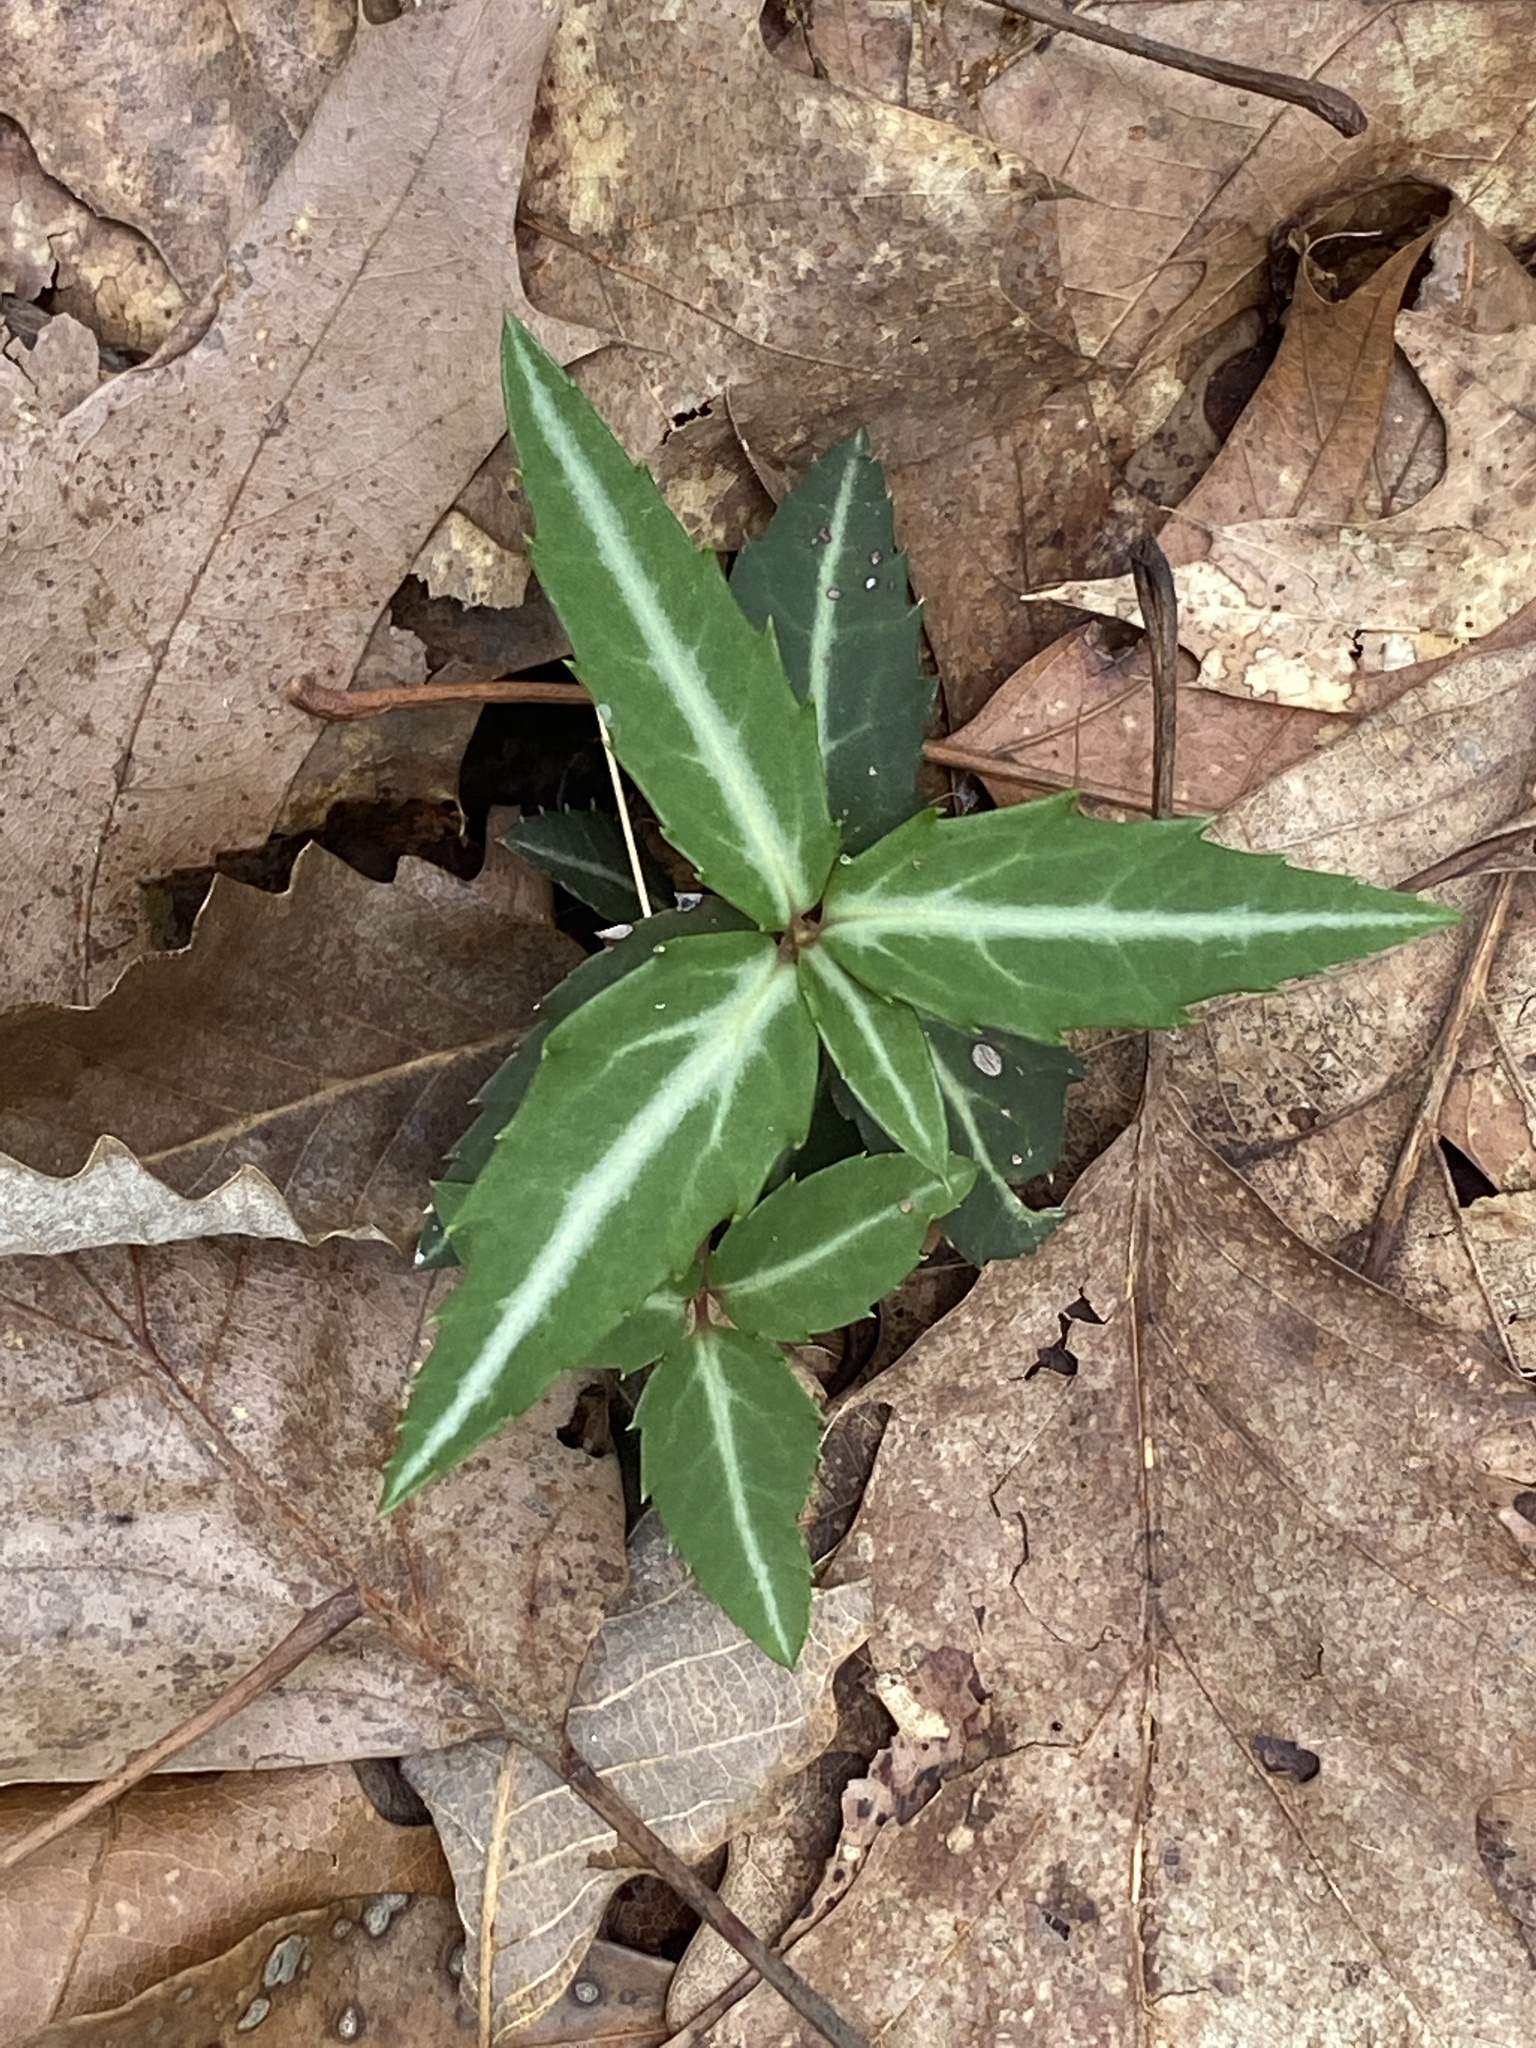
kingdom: Plantae
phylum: Tracheophyta
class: Magnoliopsida
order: Ericales
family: Ericaceae
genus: Chimaphila
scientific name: Chimaphila maculata
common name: Spotted pipsissewa
